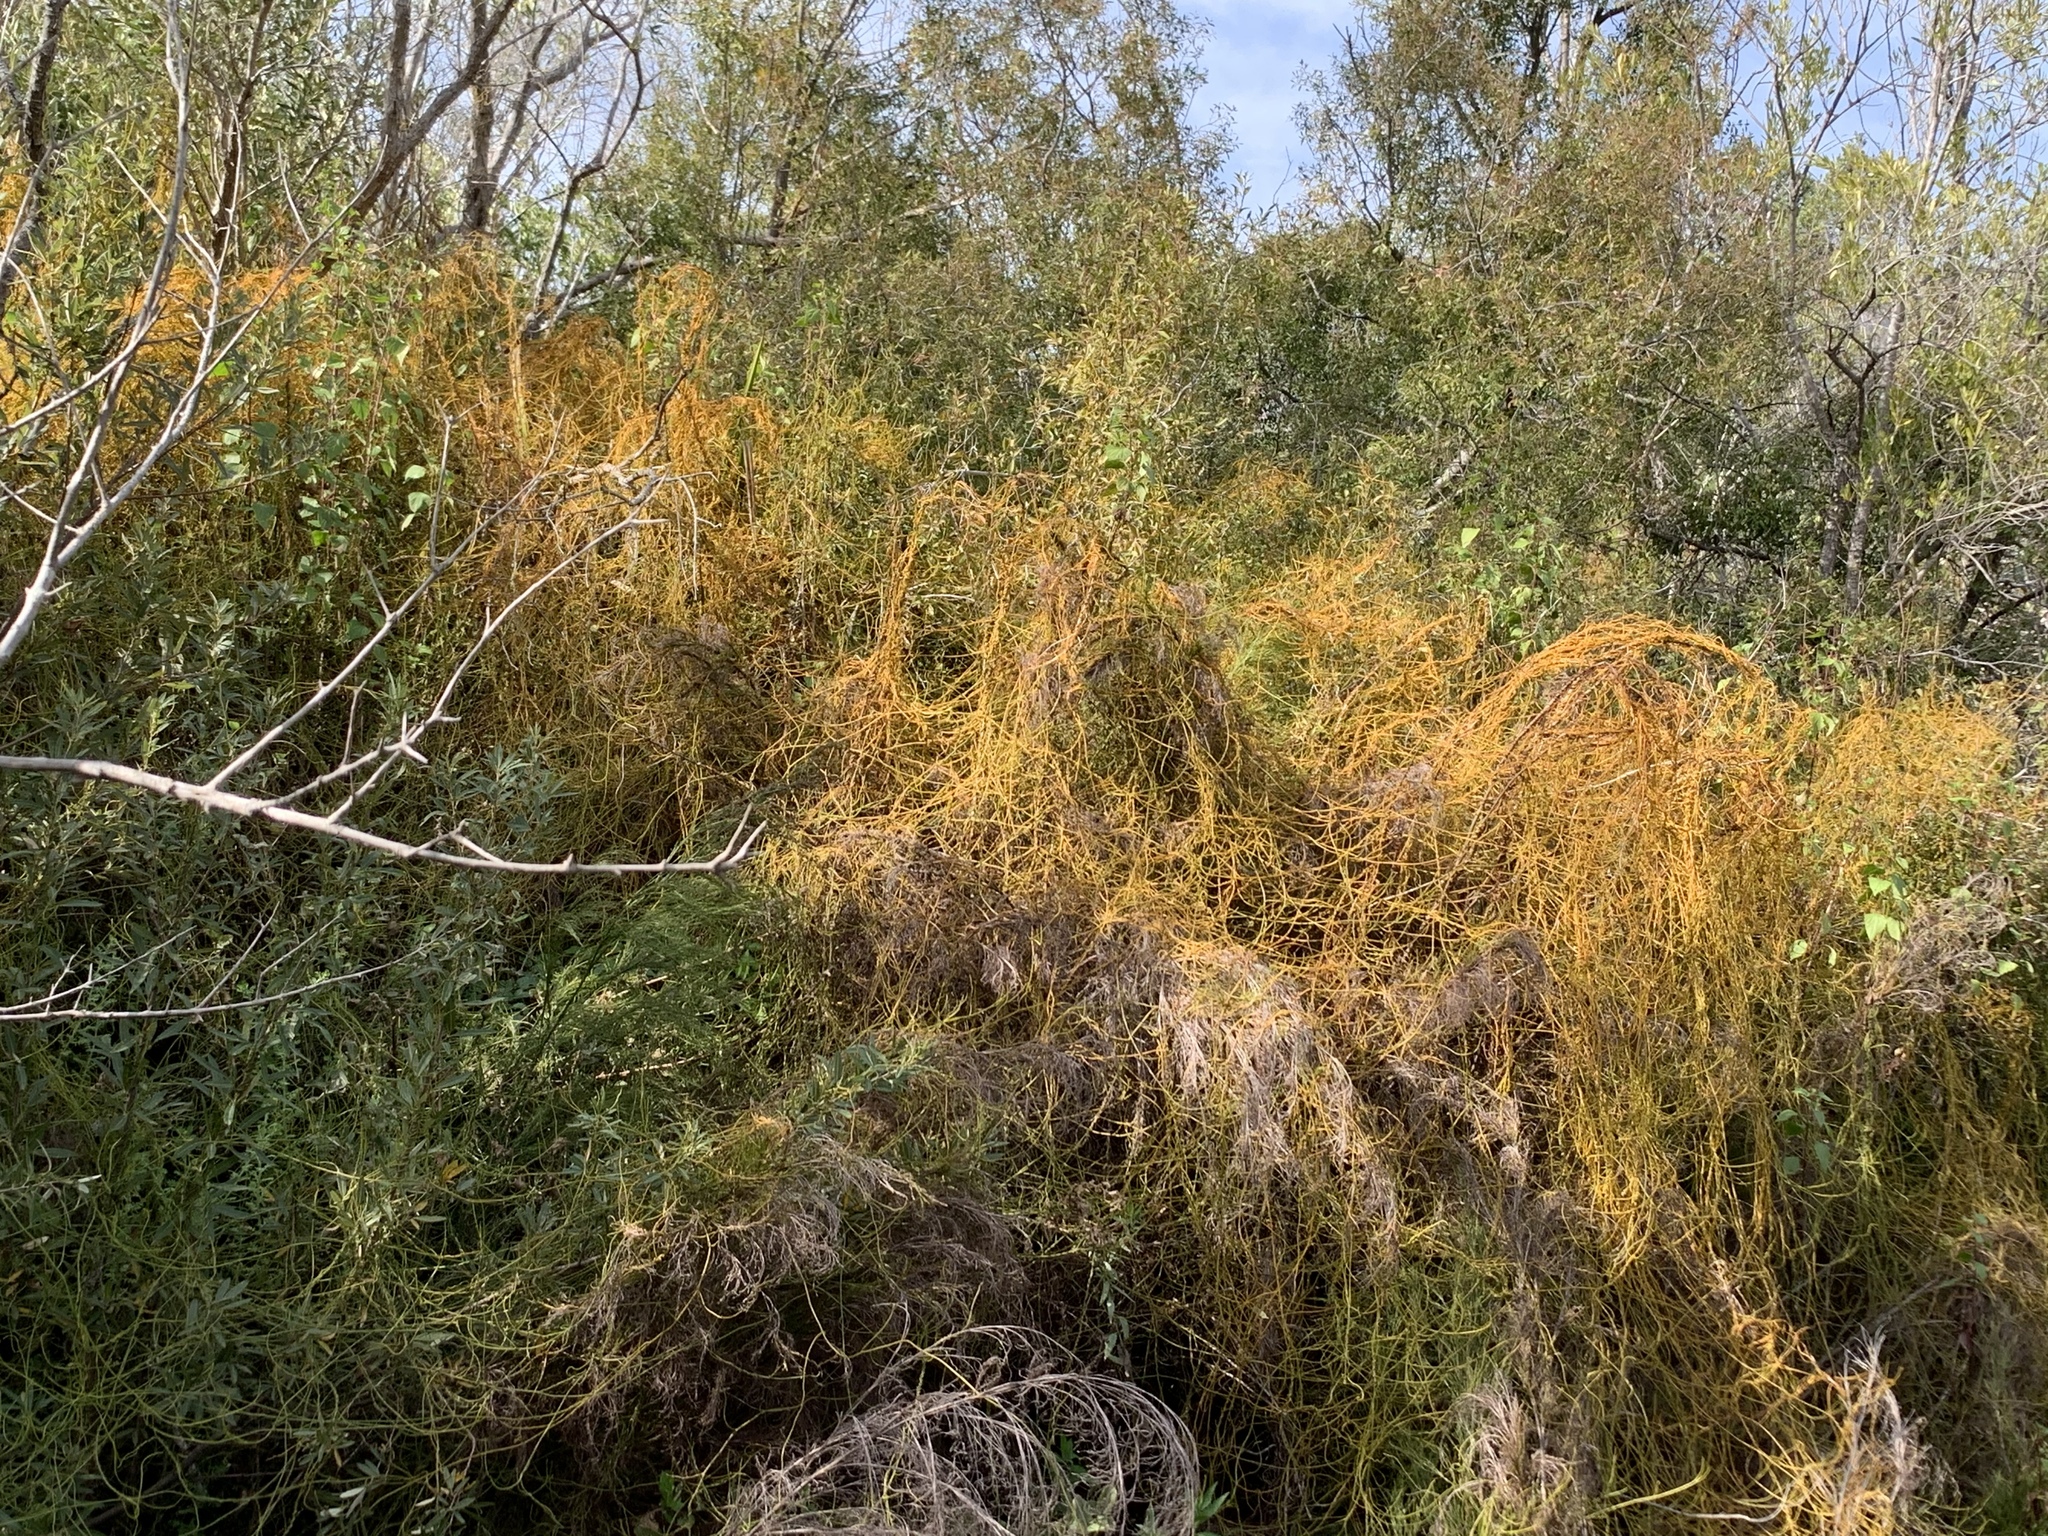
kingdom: Plantae
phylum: Tracheophyta
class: Magnoliopsida
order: Laurales
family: Lauraceae
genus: Cassytha
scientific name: Cassytha ciliolata
